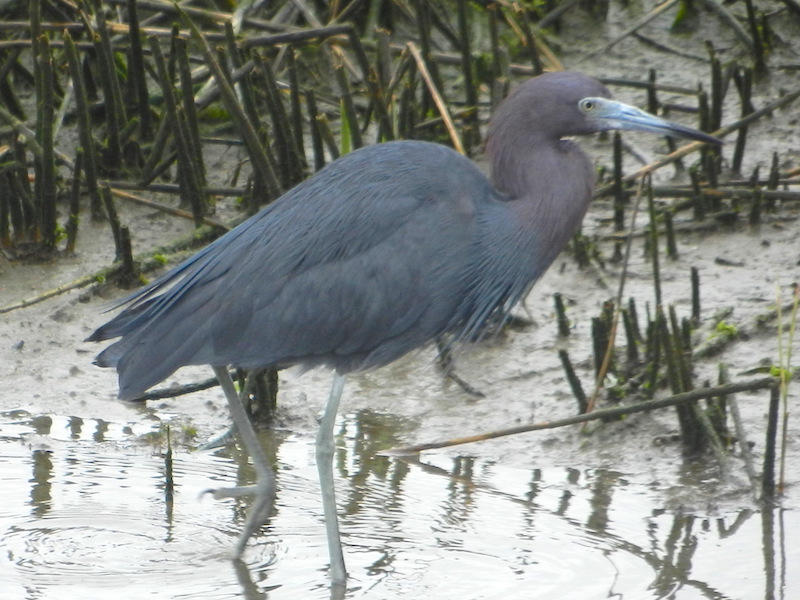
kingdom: Animalia
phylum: Chordata
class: Aves
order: Pelecaniformes
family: Ardeidae
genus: Egretta
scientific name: Egretta caerulea
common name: Little blue heron
